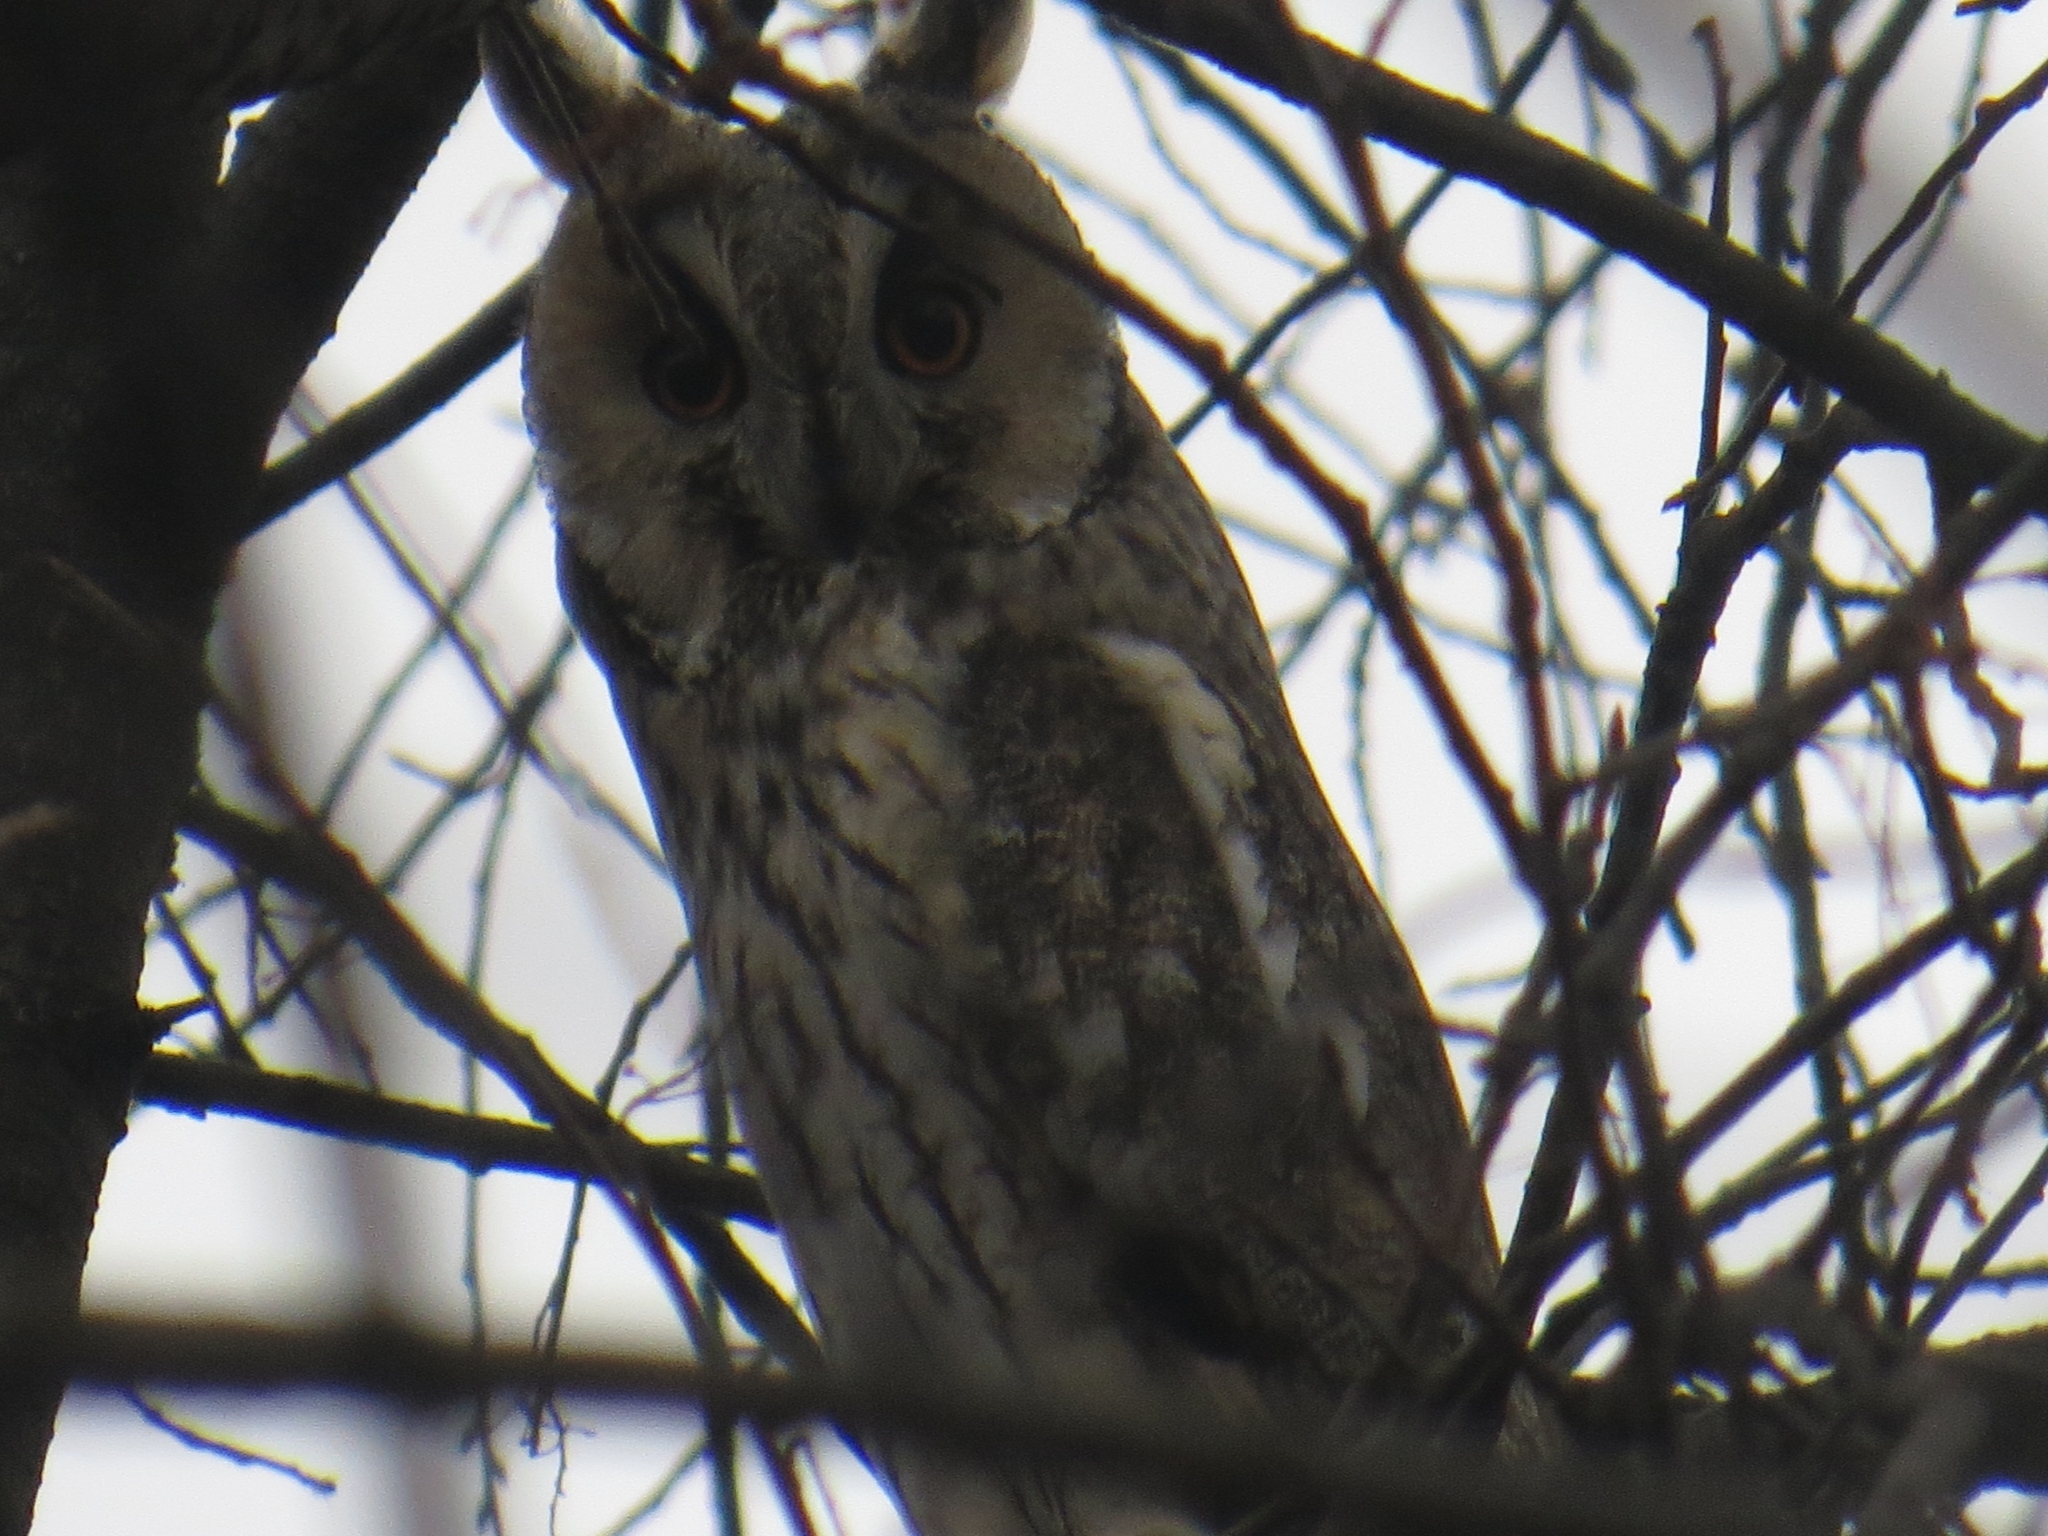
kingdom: Animalia
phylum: Chordata
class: Aves
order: Strigiformes
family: Strigidae
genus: Asio
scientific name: Asio otus
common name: Long-eared owl
